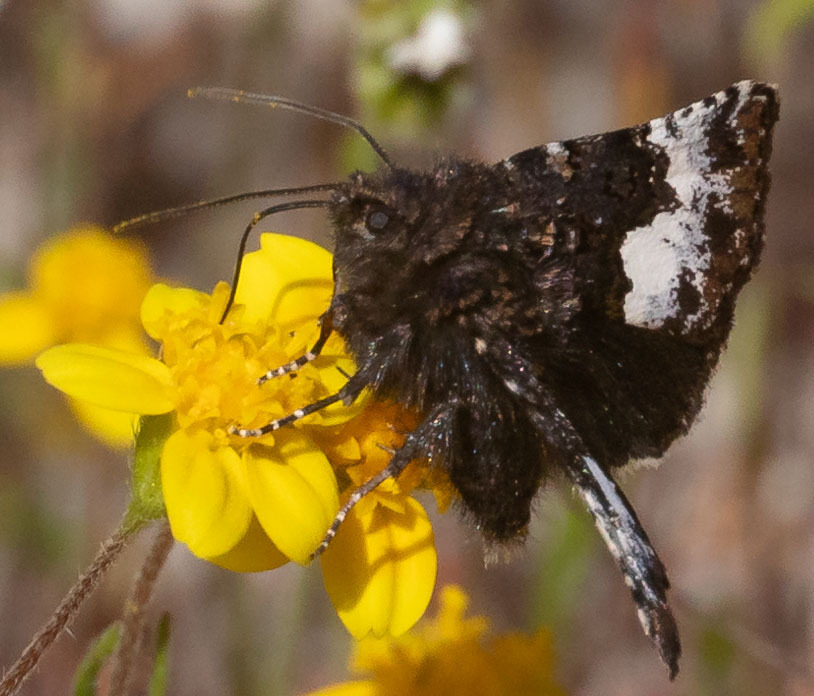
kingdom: Animalia
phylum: Arthropoda
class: Insecta
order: Lepidoptera
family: Noctuidae
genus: Stylopoda
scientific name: Stylopoda cephalica
